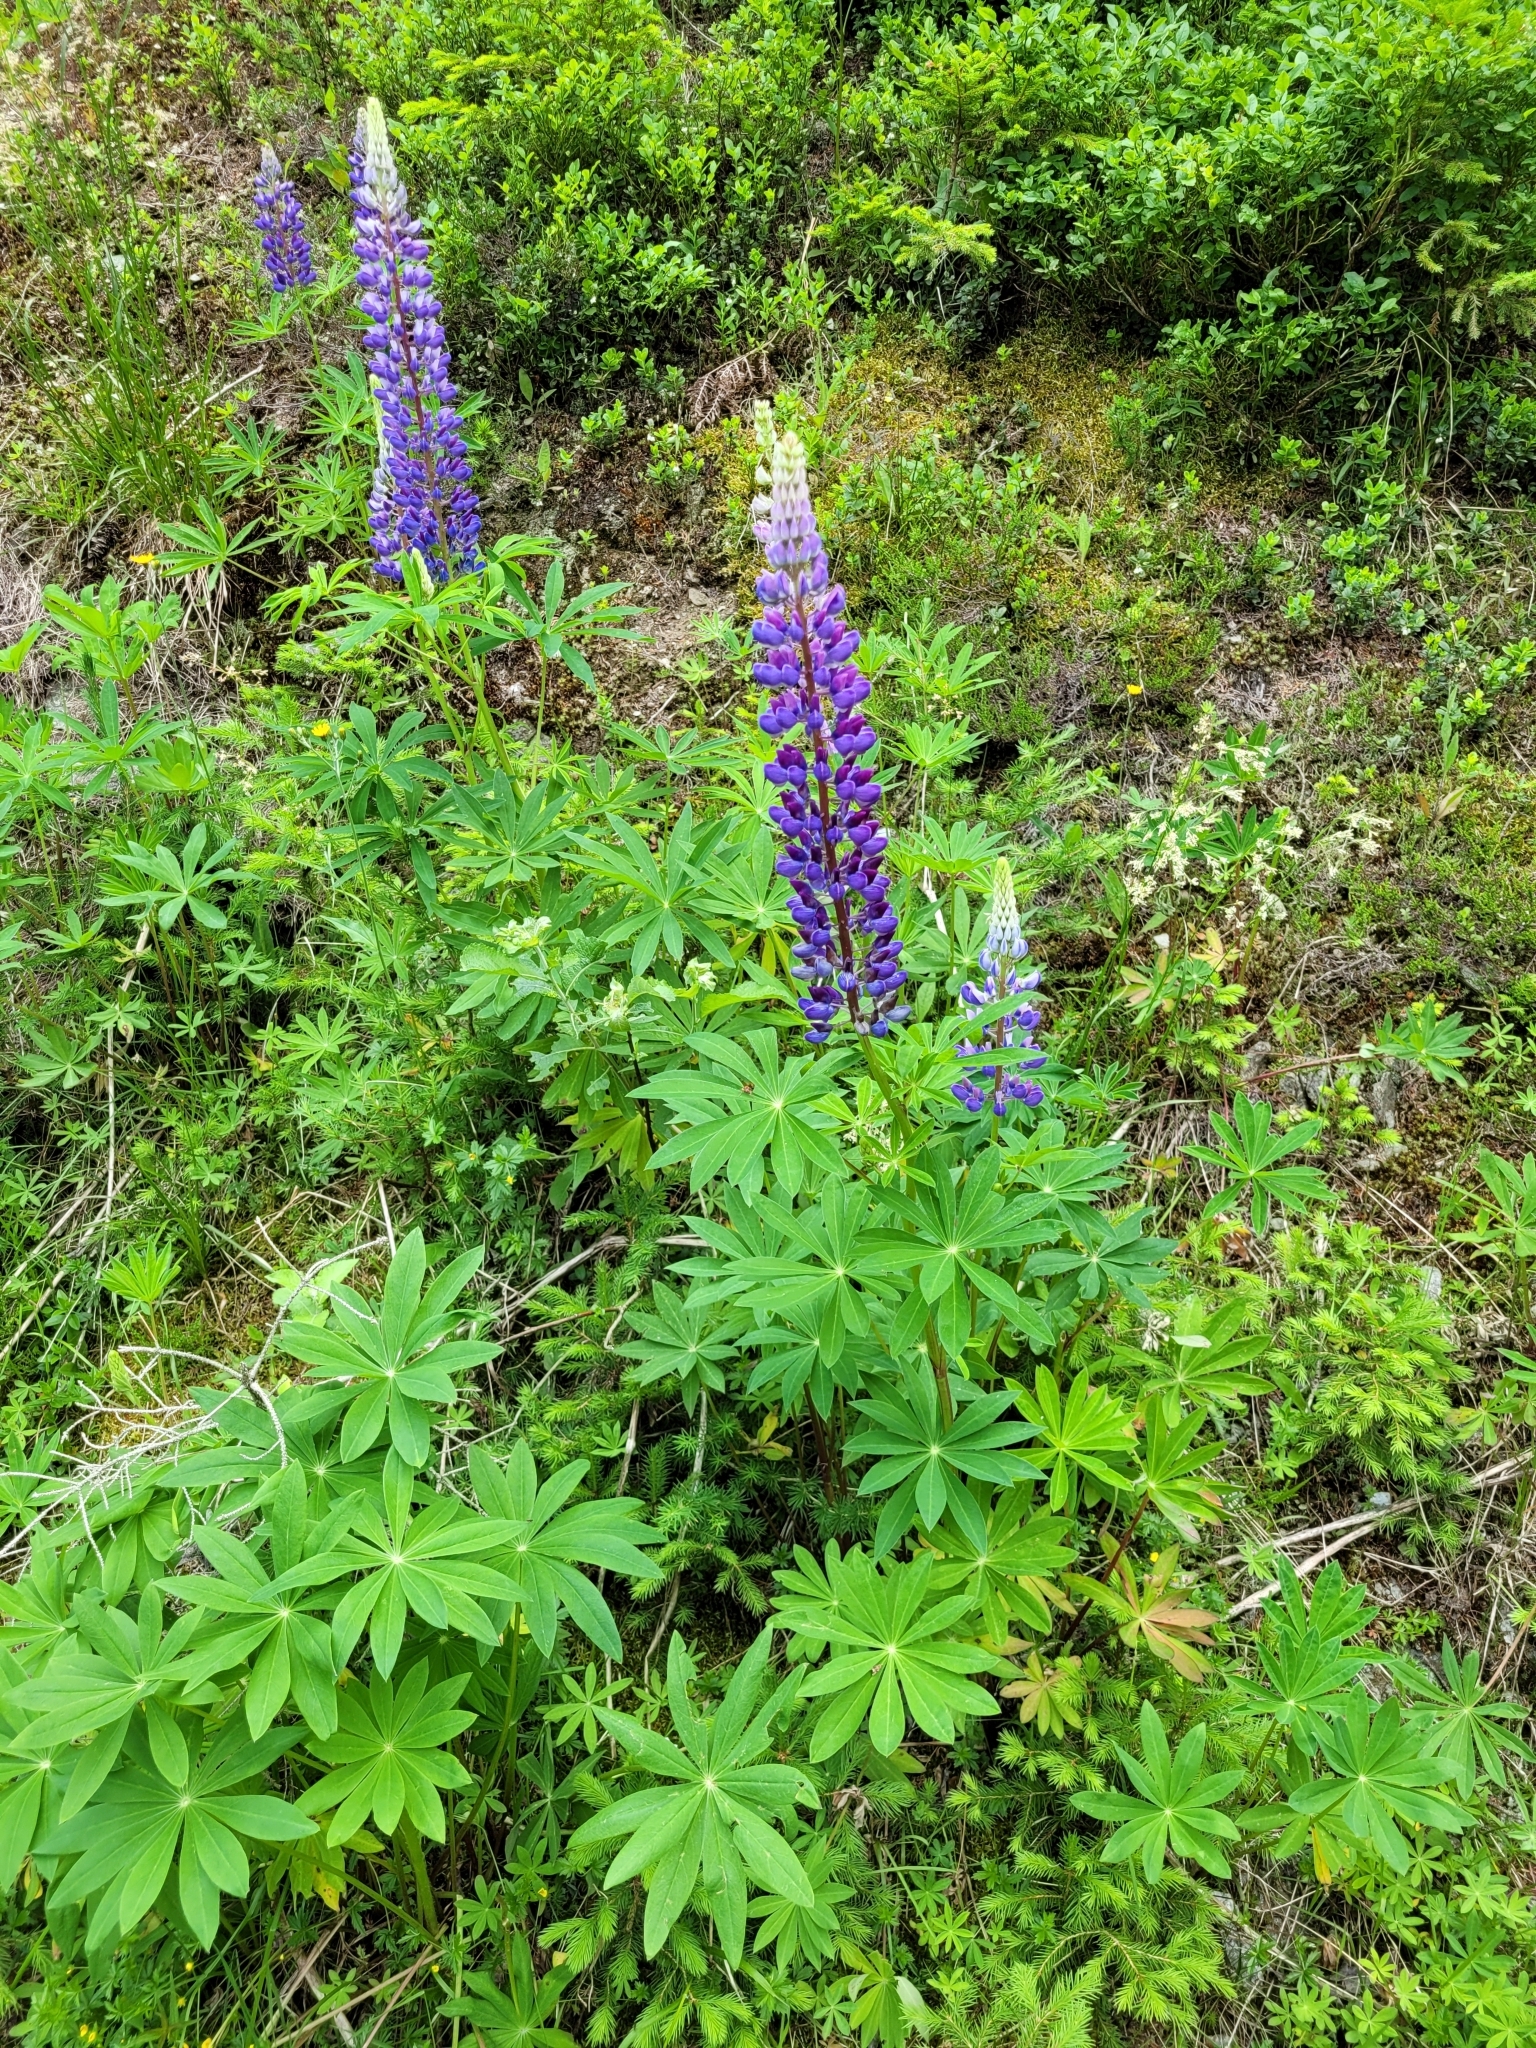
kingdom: Plantae
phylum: Tracheophyta
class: Magnoliopsida
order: Fabales
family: Fabaceae
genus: Lupinus
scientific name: Lupinus polyphyllus
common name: Garden lupin
